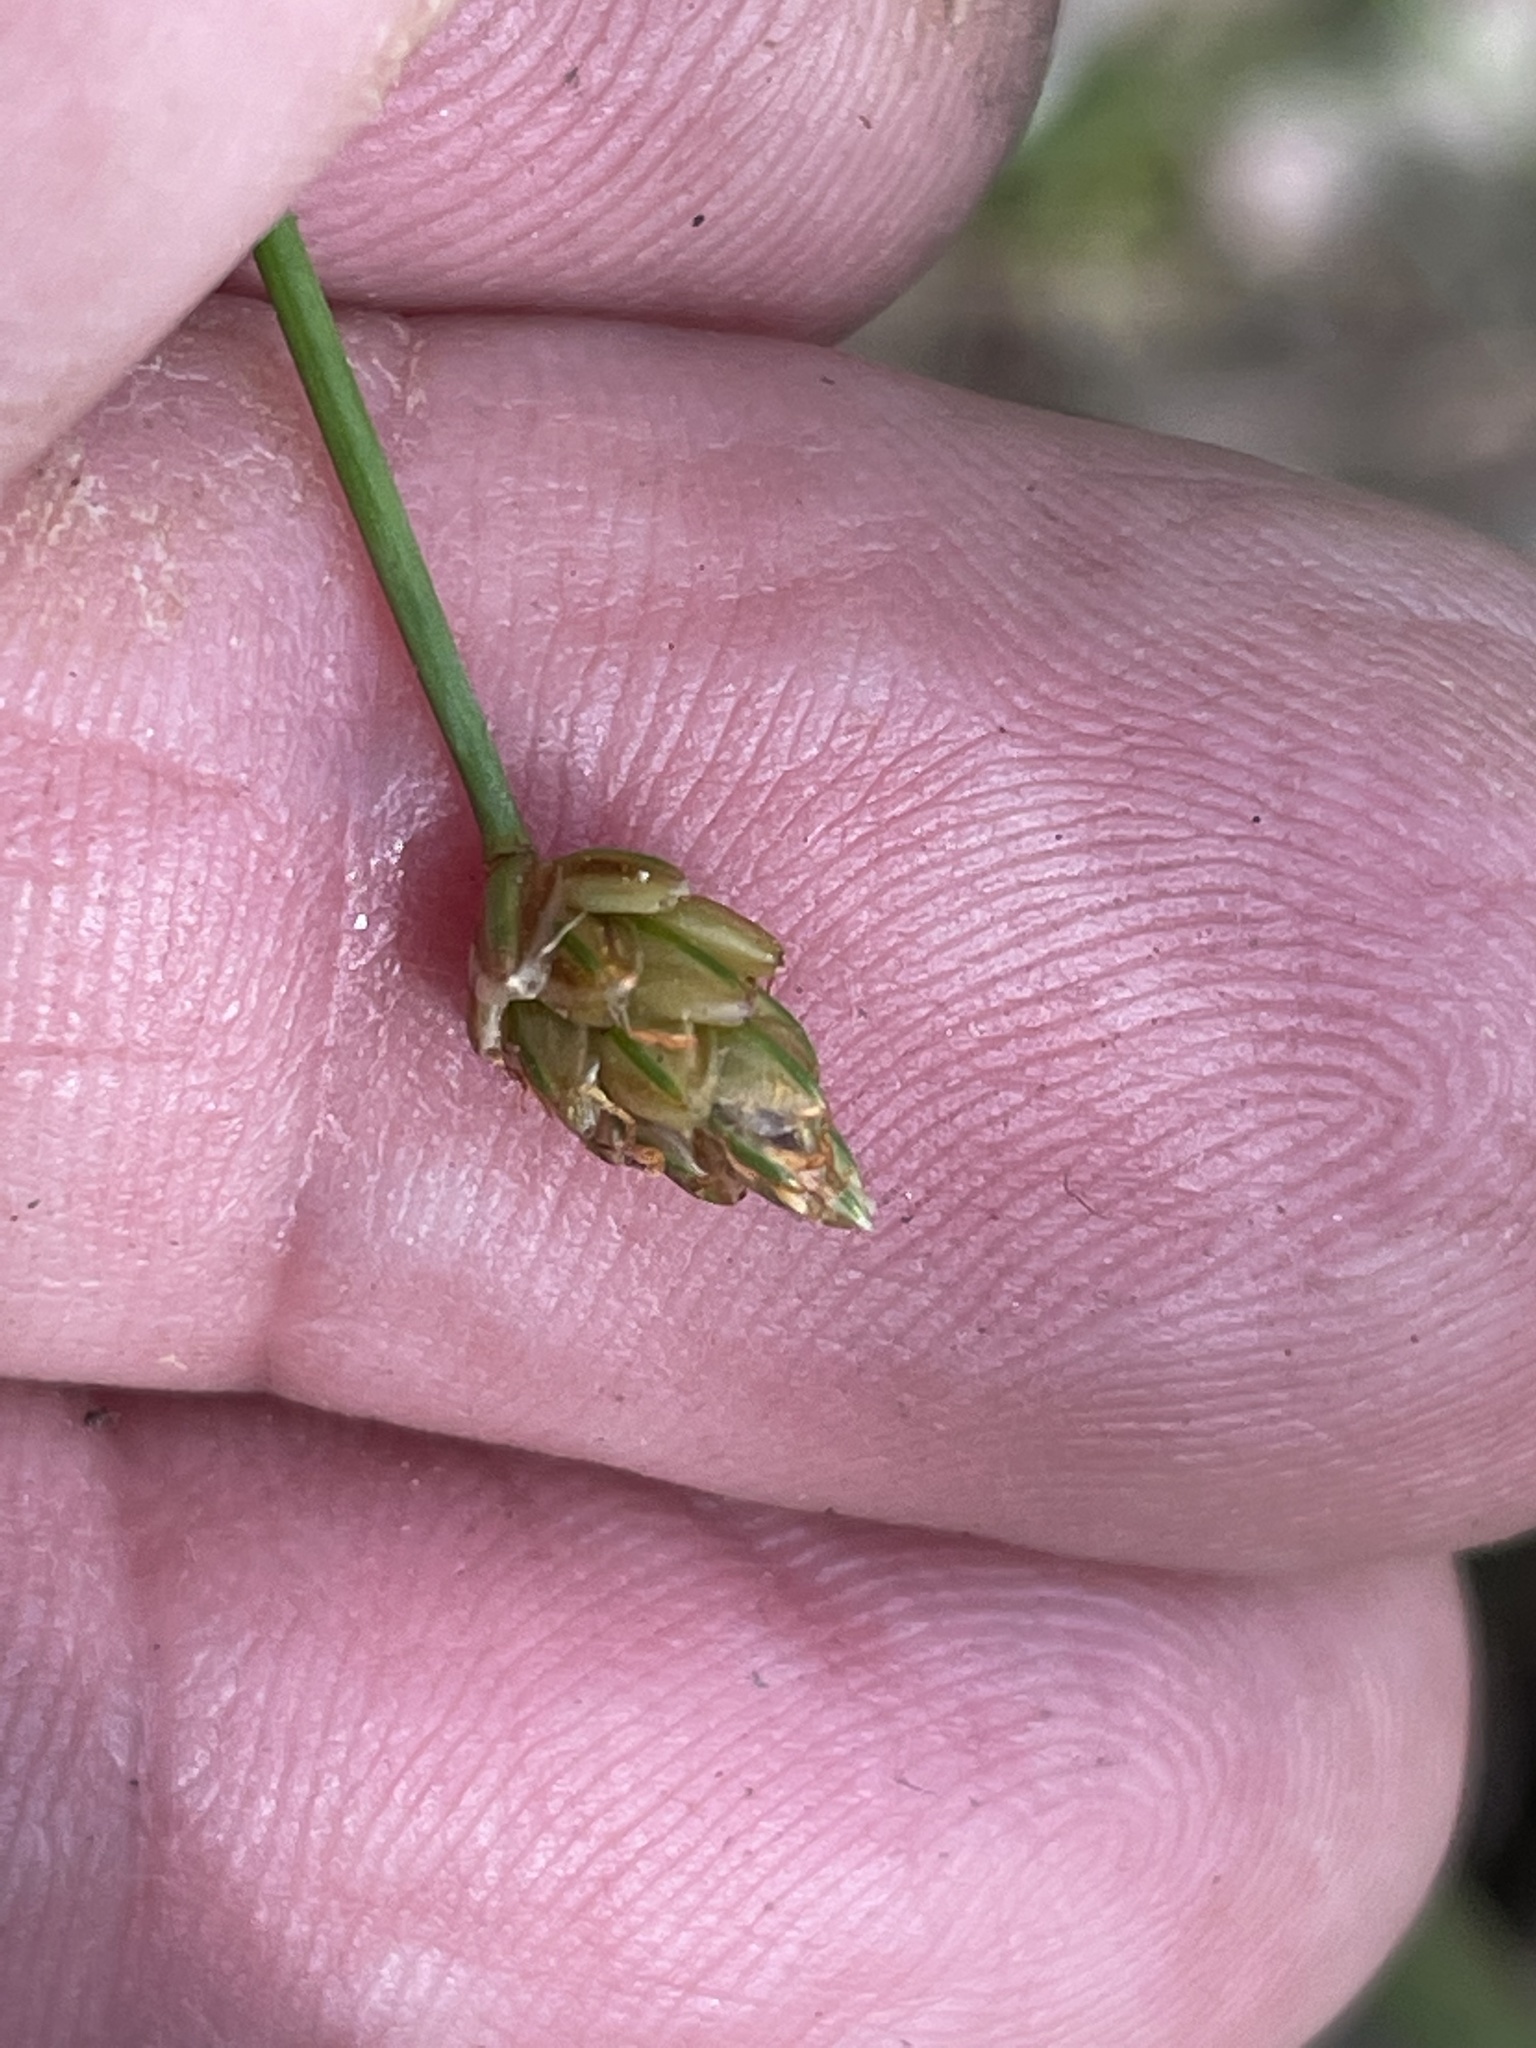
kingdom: Plantae
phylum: Tracheophyta
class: Liliopsida
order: Poales
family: Cyperaceae
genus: Eleocharis
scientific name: Eleocharis tuberculosa
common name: Cone-cup spikerush
